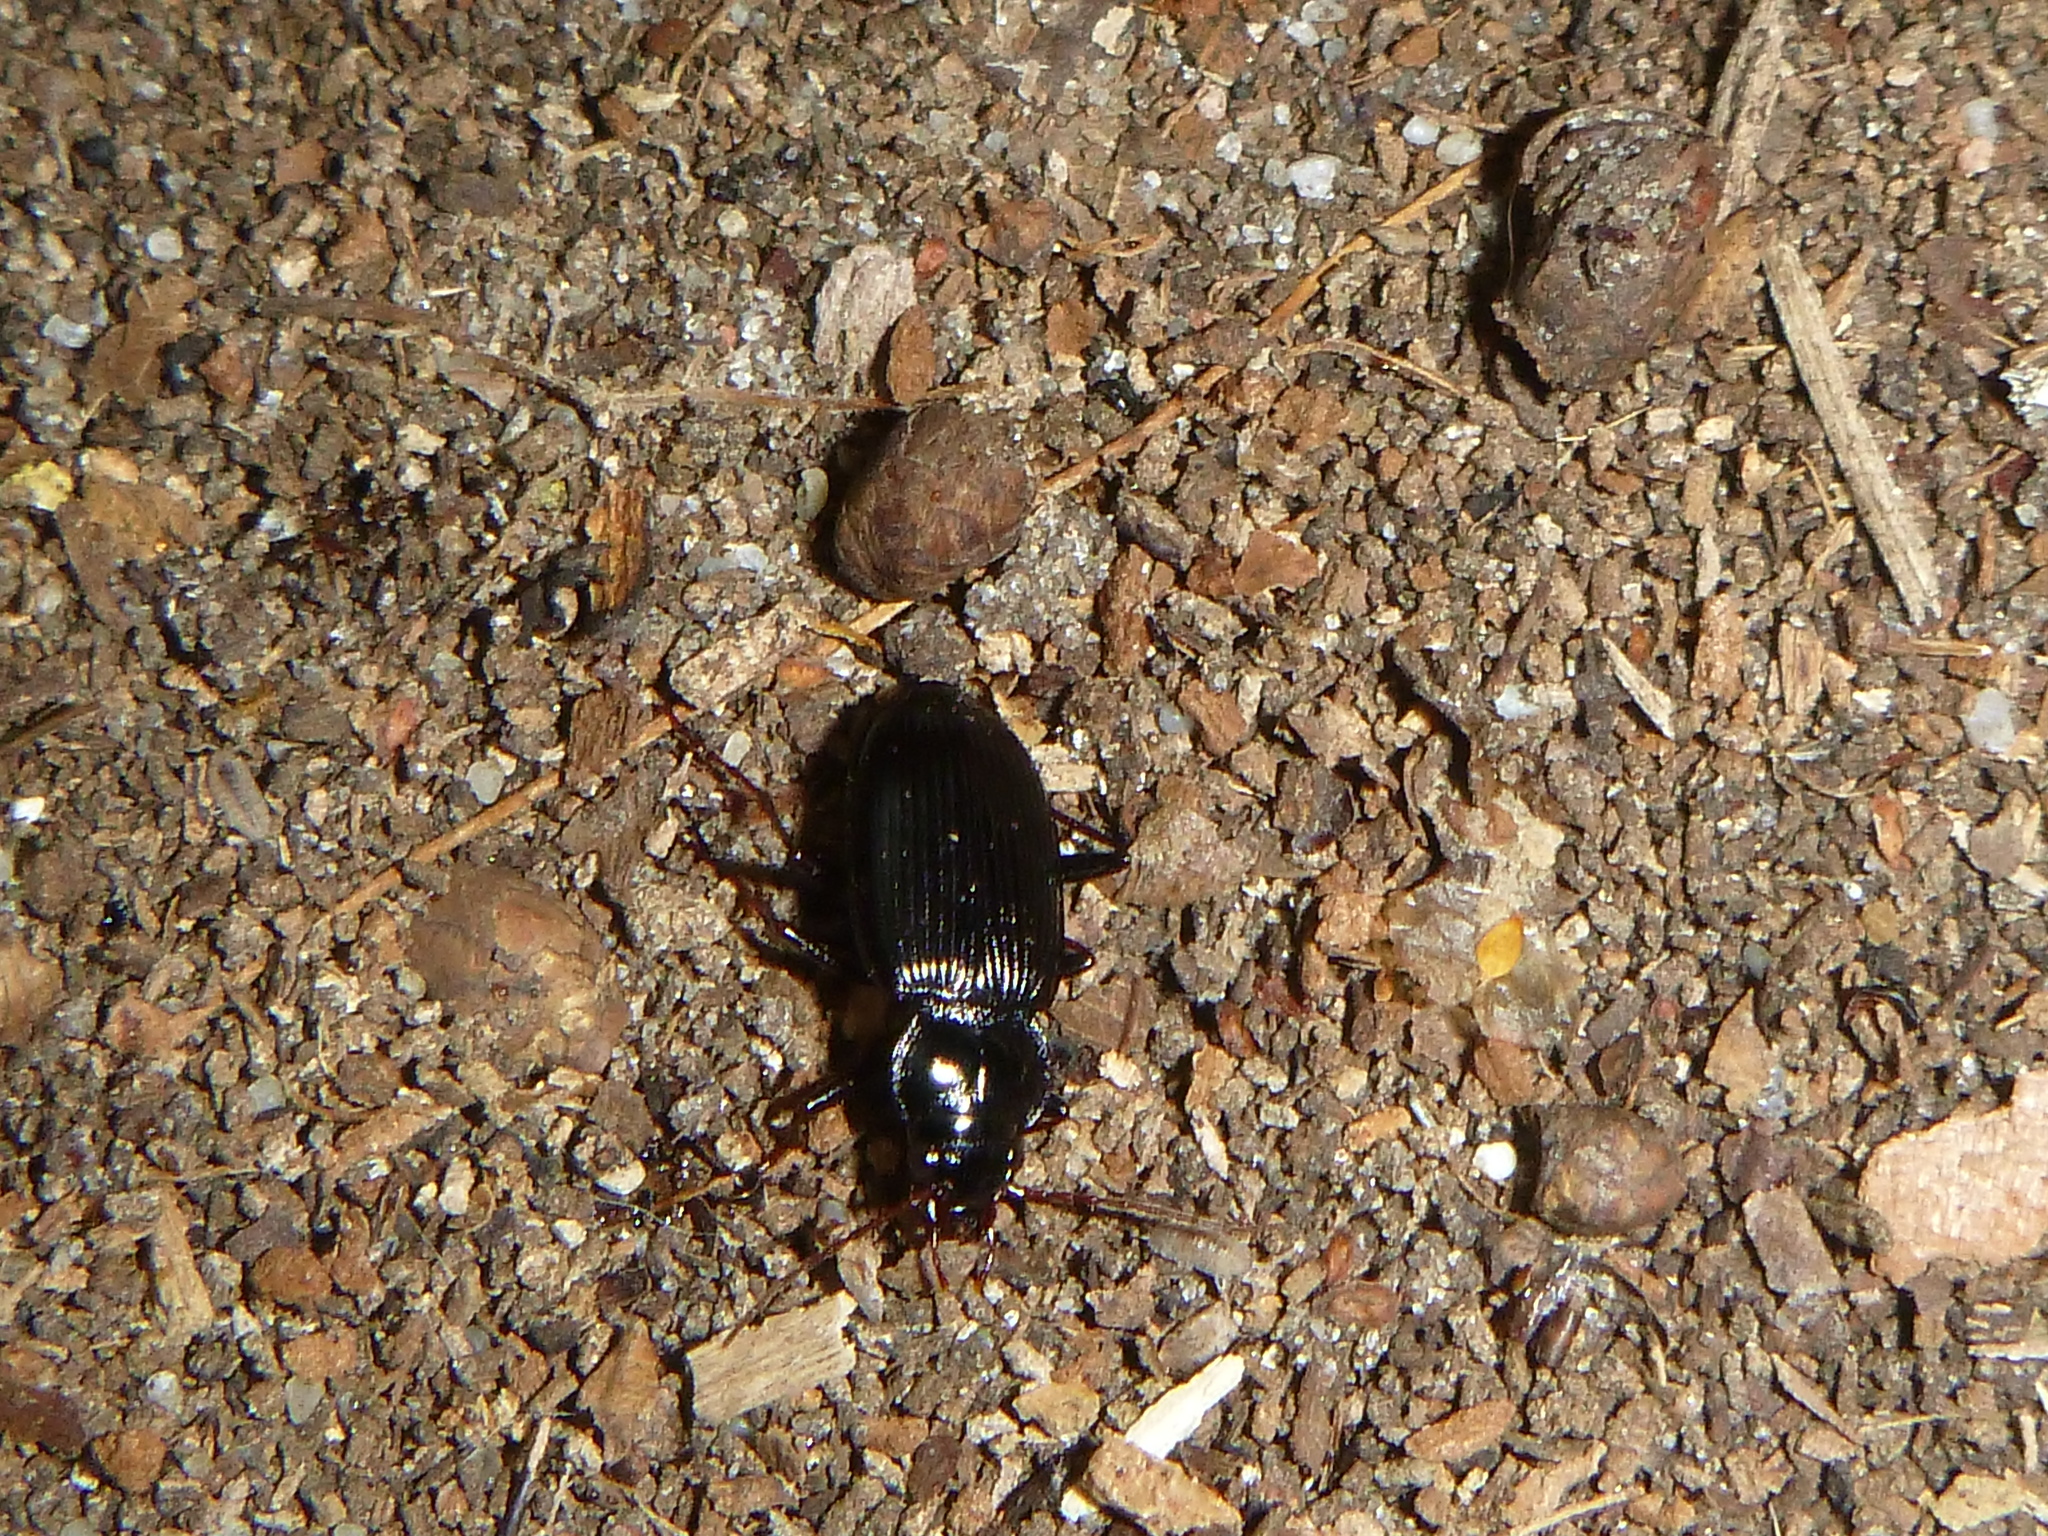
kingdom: Animalia
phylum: Arthropoda
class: Insecta
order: Coleoptera
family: Carabidae
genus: Nebria
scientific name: Nebria brevicollis
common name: Short-necked gazelle beetle
